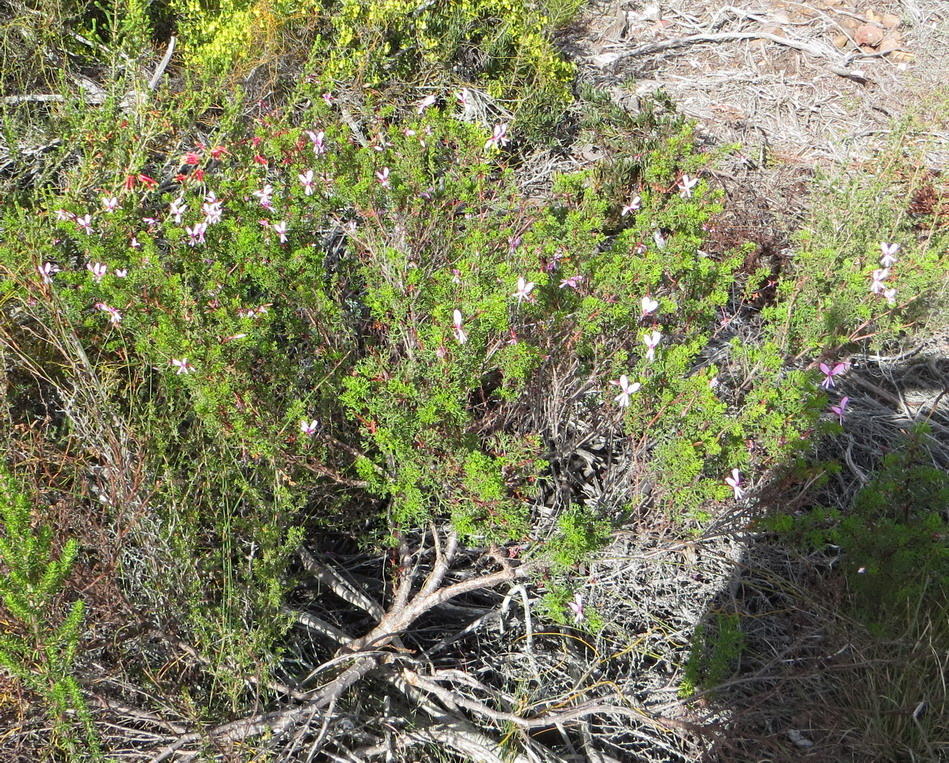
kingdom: Plantae
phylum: Tracheophyta
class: Magnoliopsida
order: Geraniales
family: Geraniaceae
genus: Pelargonium
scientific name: Pelargonium fruticosum
